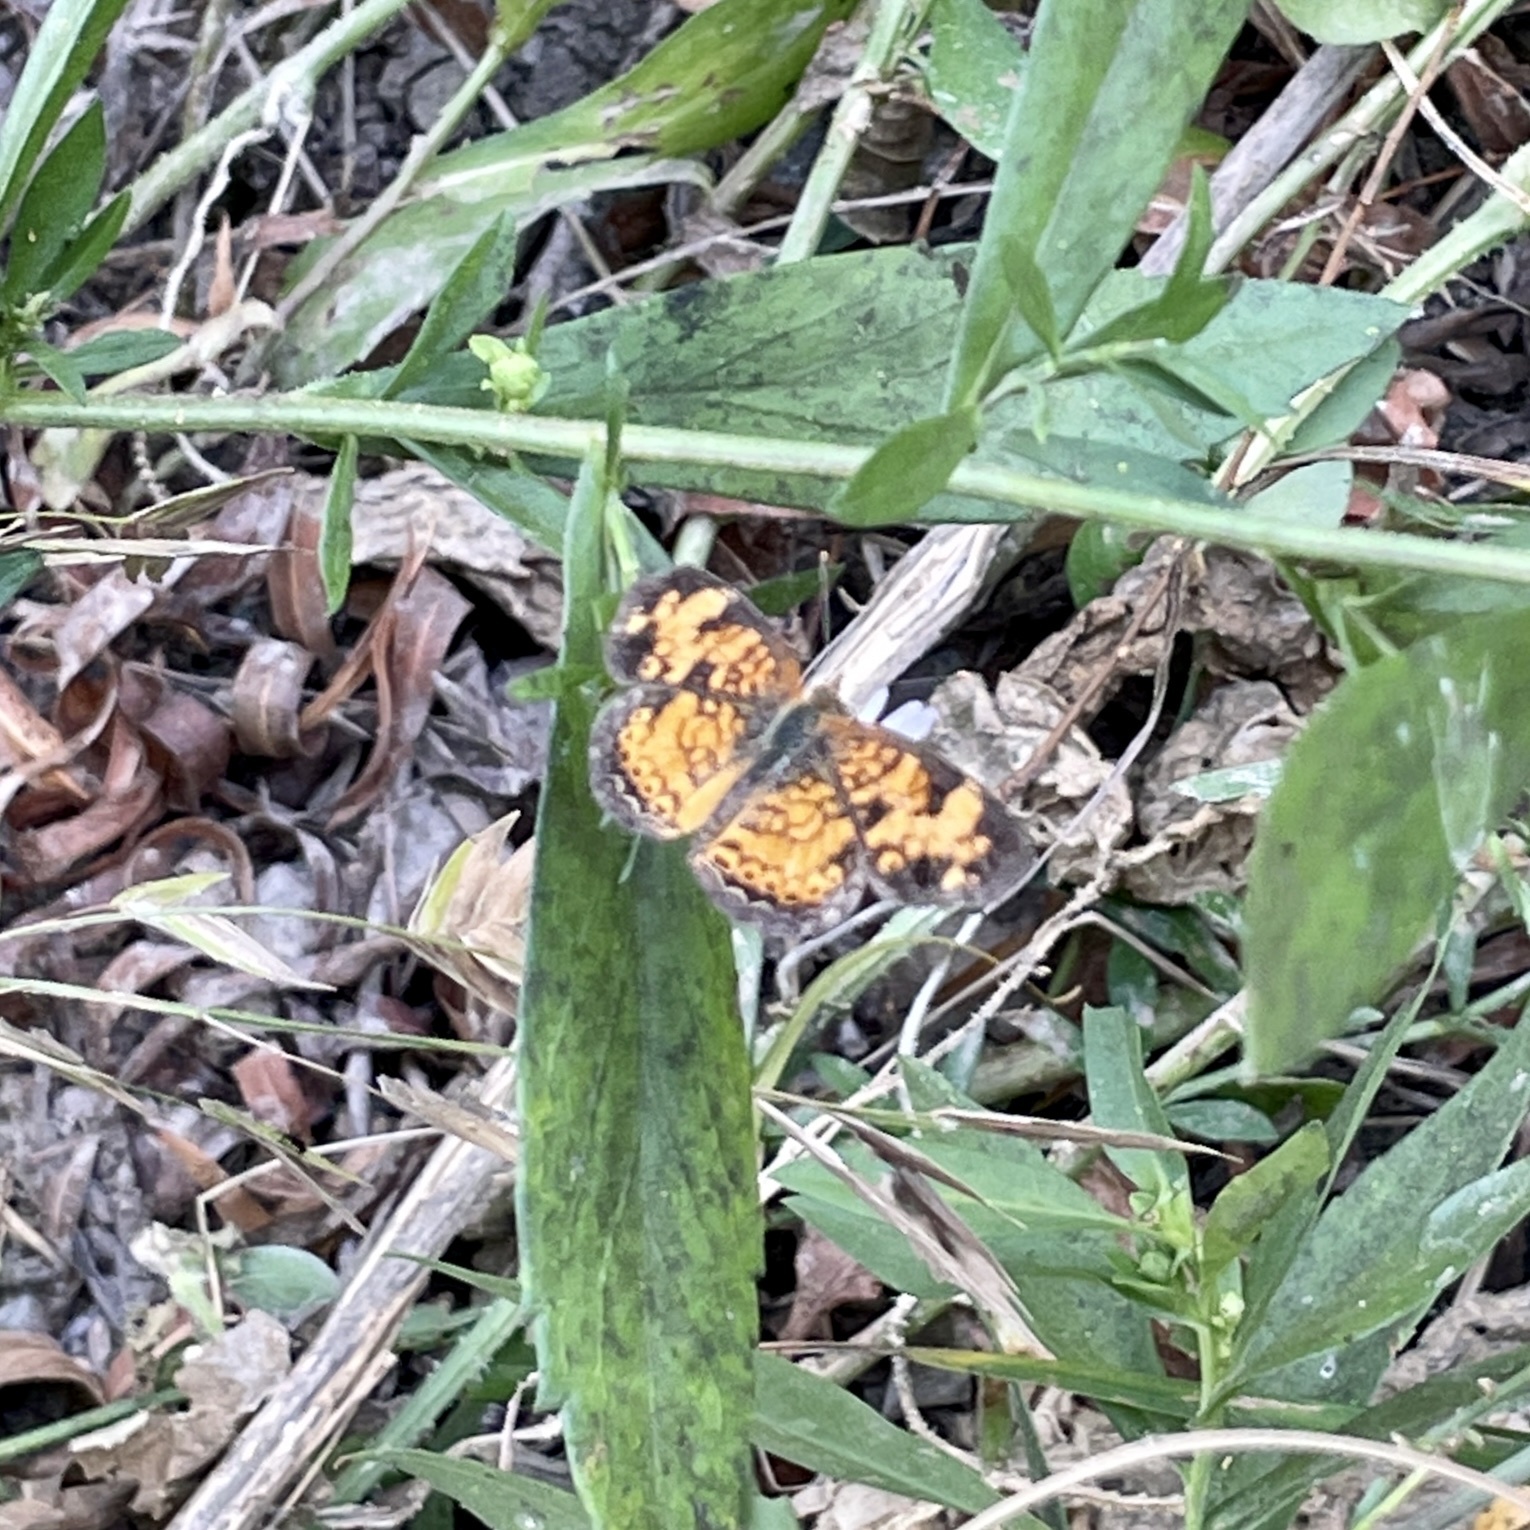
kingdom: Animalia
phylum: Arthropoda
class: Insecta
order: Lepidoptera
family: Nymphalidae
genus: Phyciodes
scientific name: Phyciodes tharos
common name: Pearl crescent
